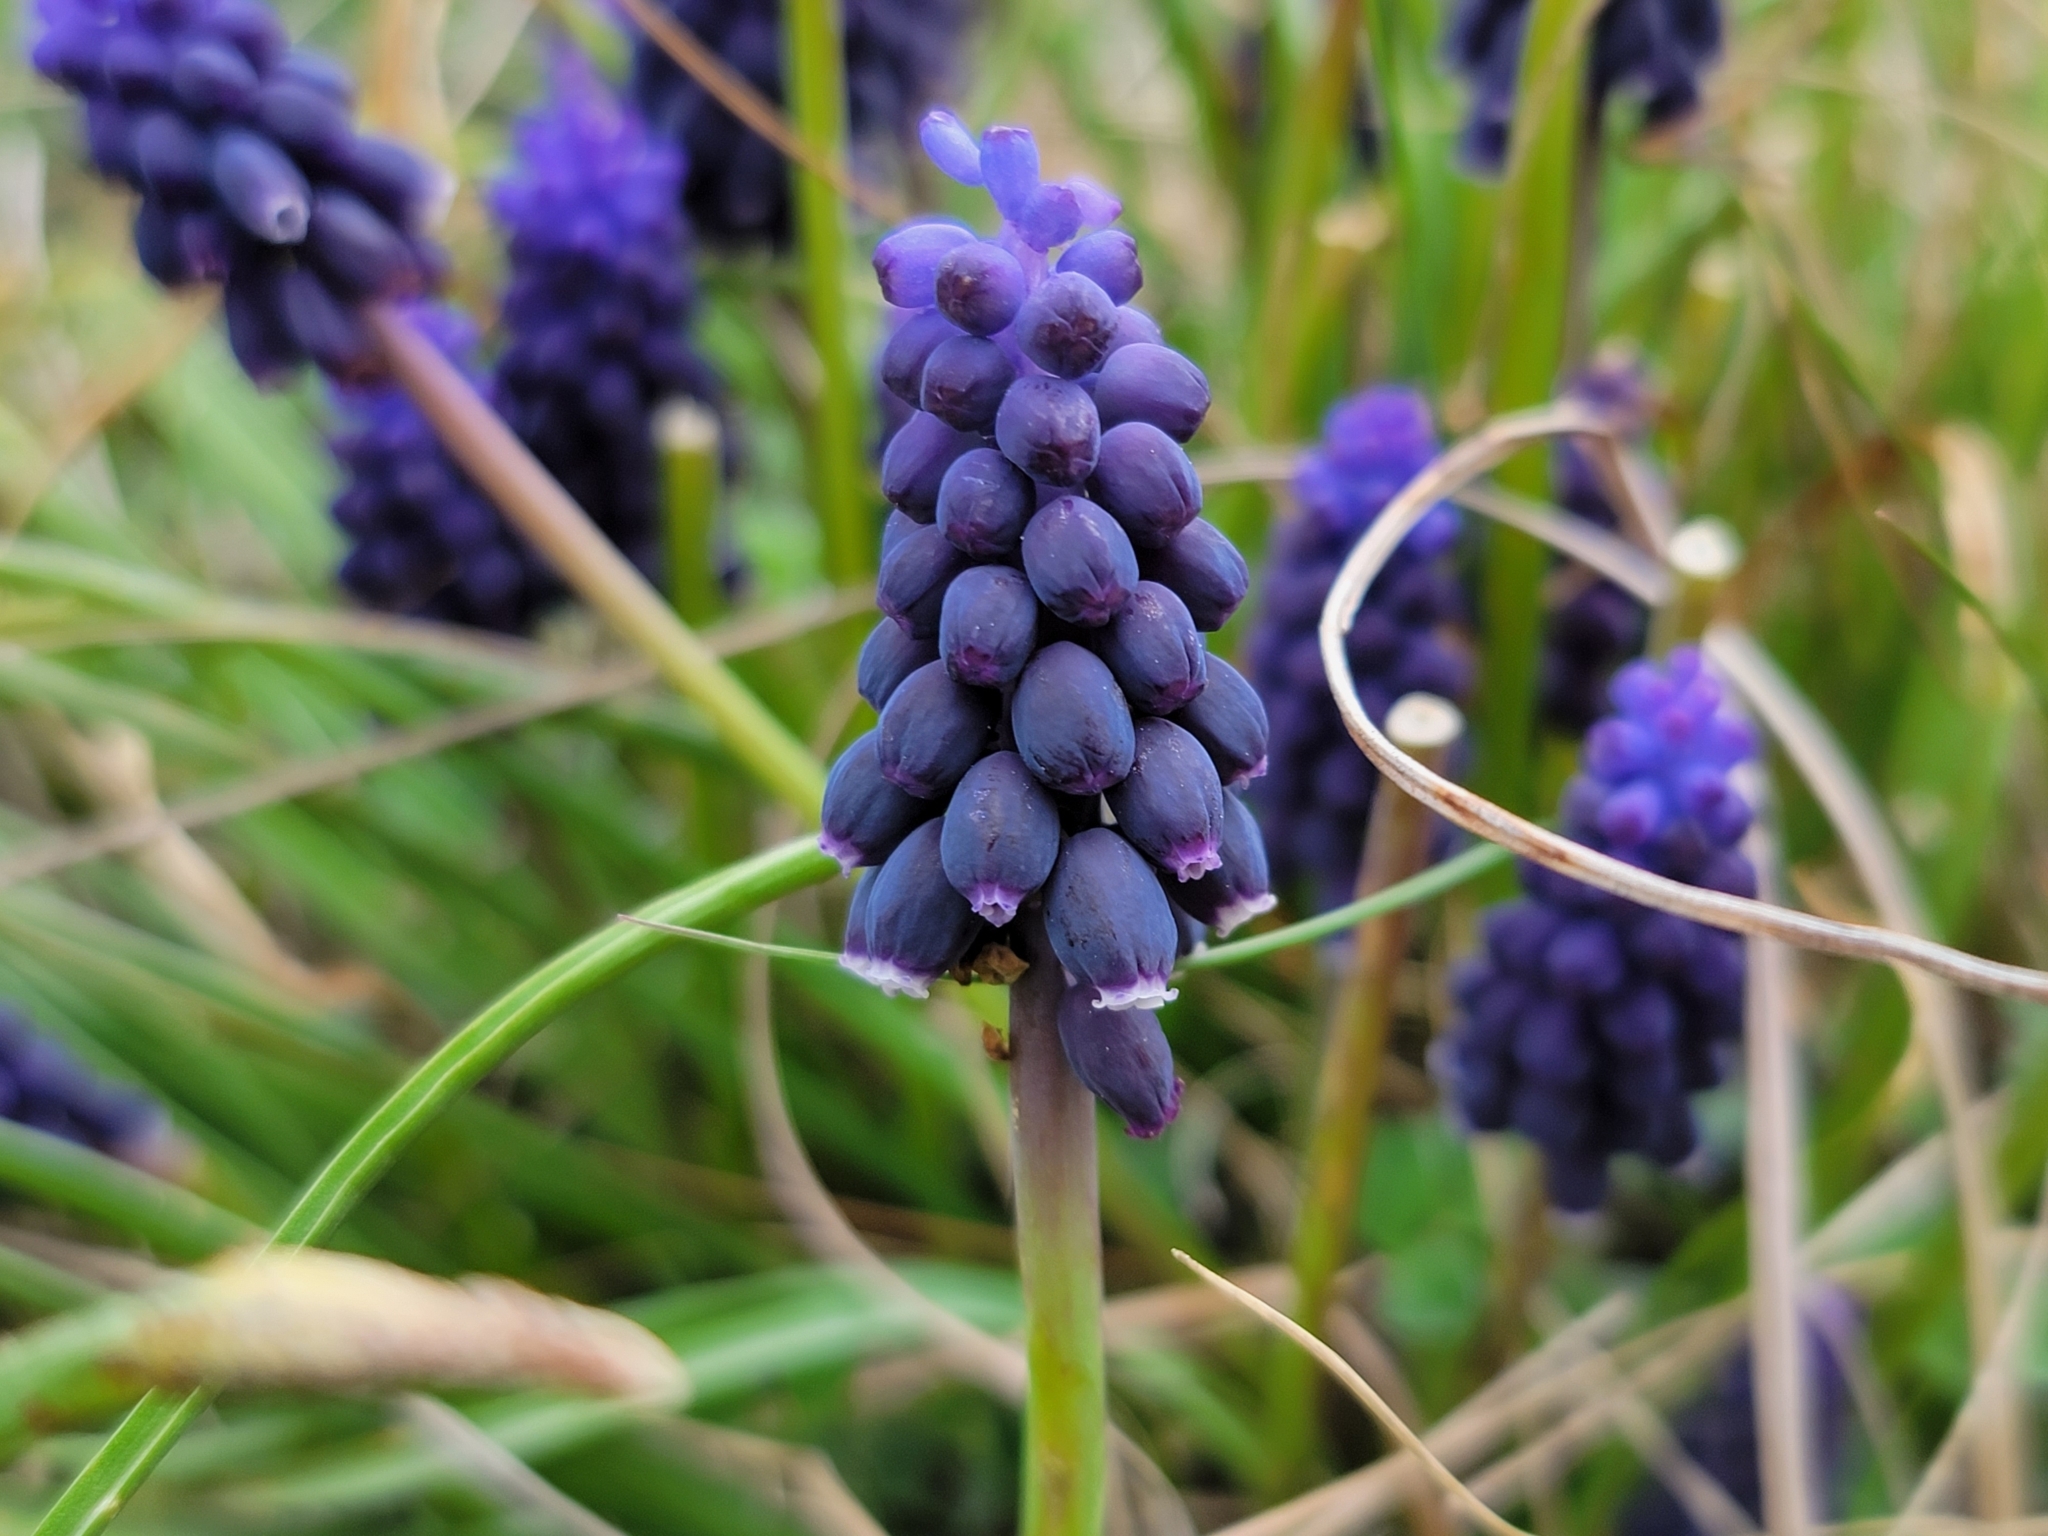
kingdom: Plantae
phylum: Tracheophyta
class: Liliopsida
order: Asparagales
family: Asparagaceae
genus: Muscari
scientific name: Muscari neglectum
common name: Grape-hyacinth
